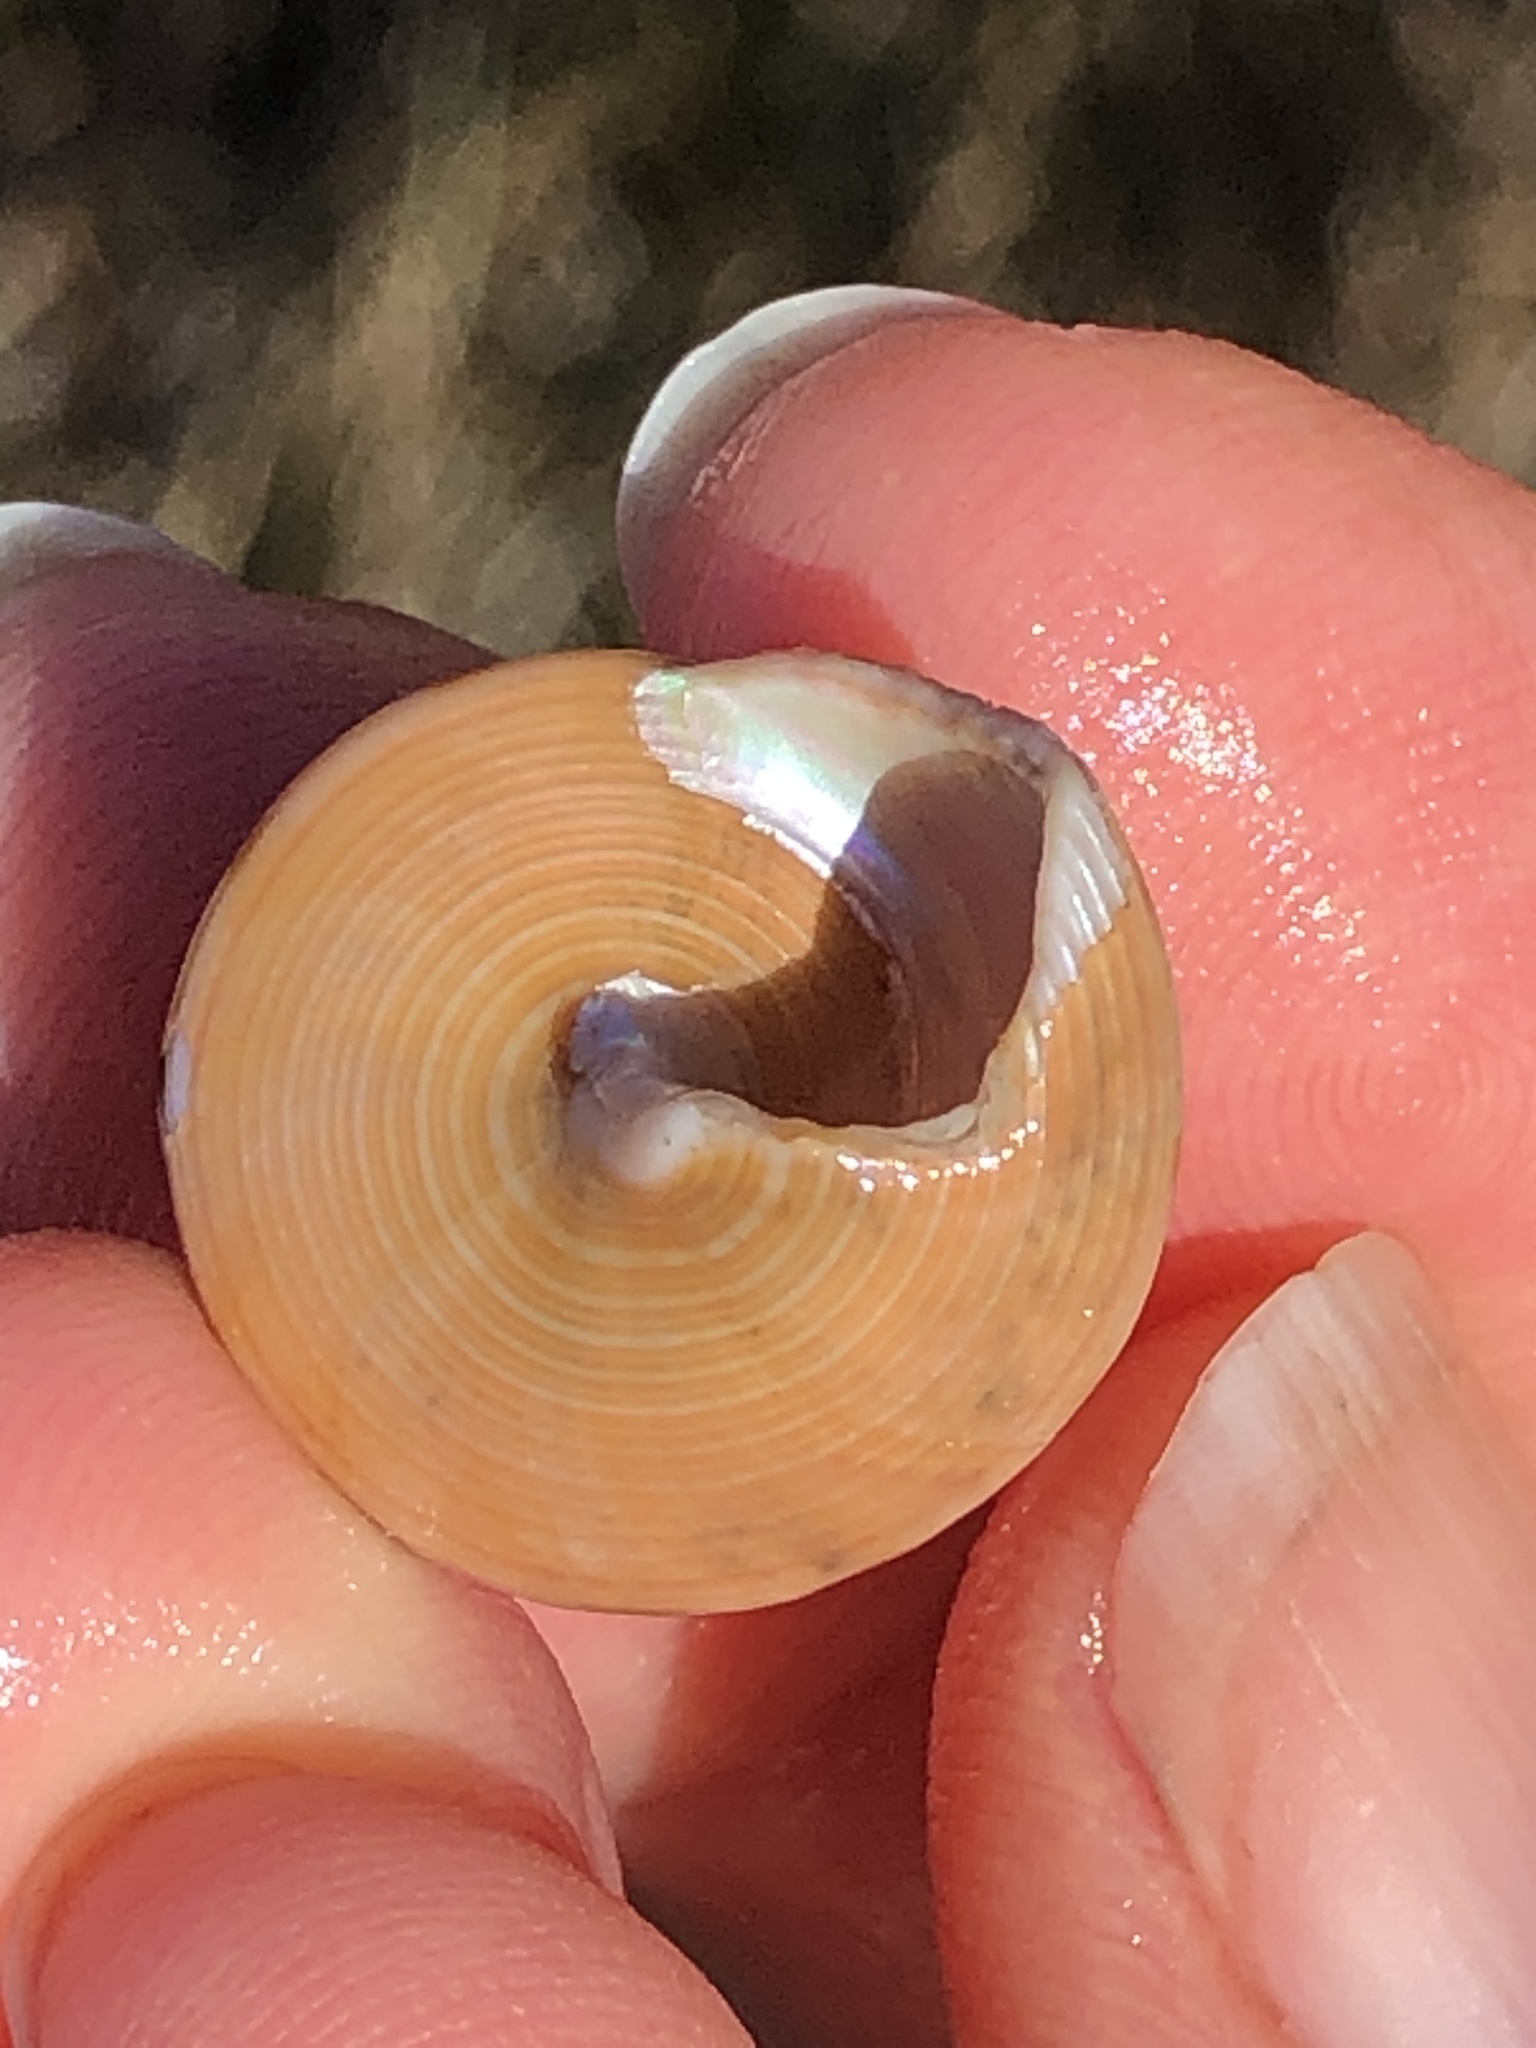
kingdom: Animalia
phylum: Mollusca
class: Gastropoda
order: Trochida
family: Calliostomatidae
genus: Calliostoma
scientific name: Calliostoma gloriosum
